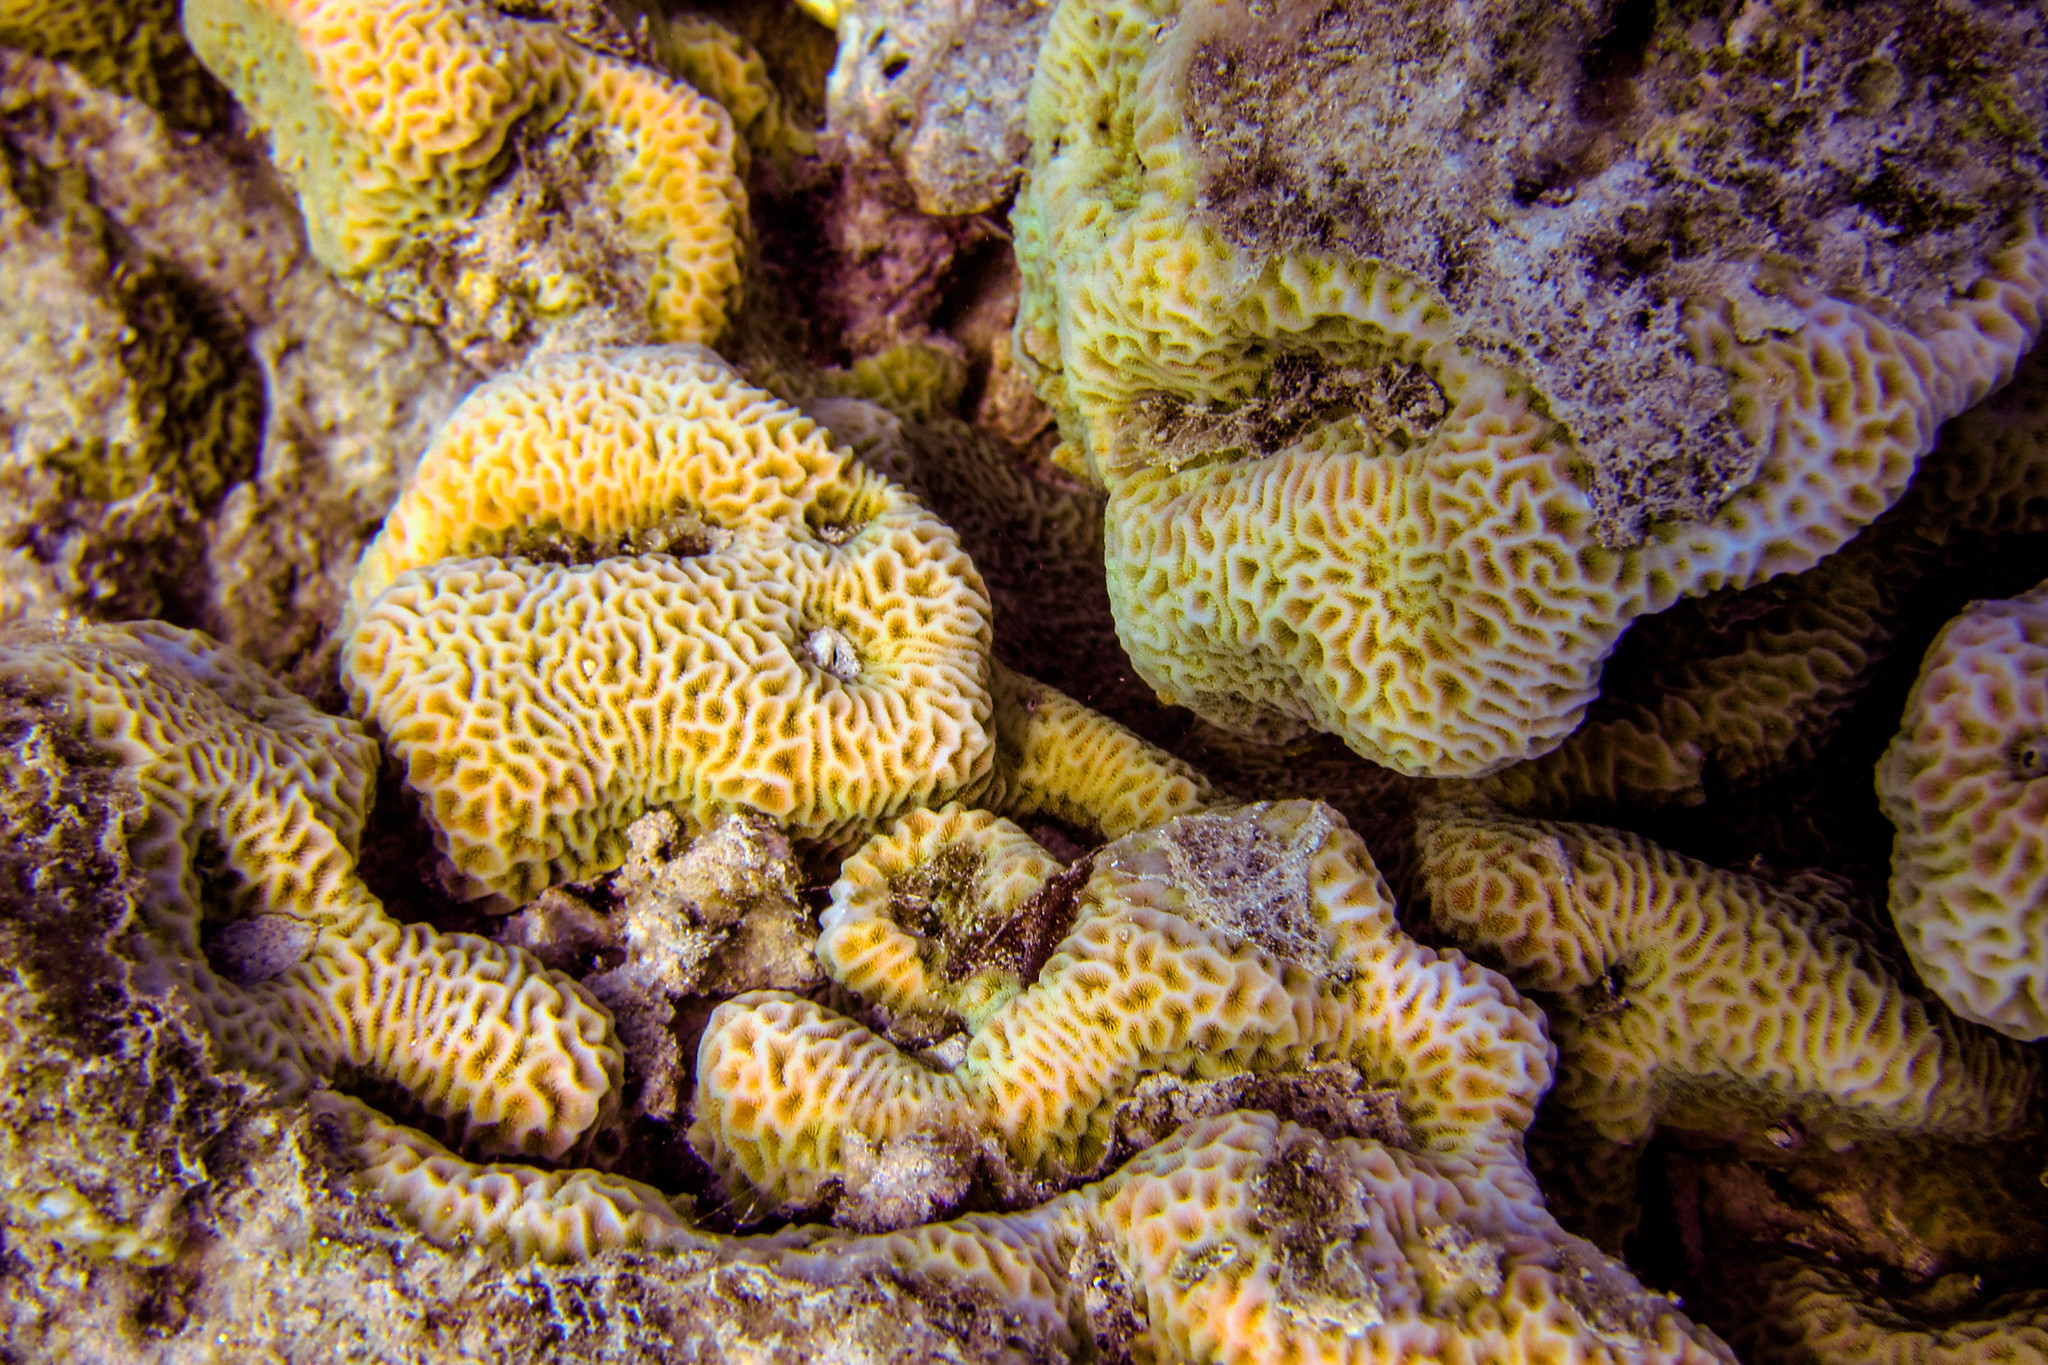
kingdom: Animalia
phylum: Cnidaria
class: Anthozoa
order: Scleractinia
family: Agariciidae
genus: Pavona
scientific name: Pavona venosa
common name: Leaf coral
